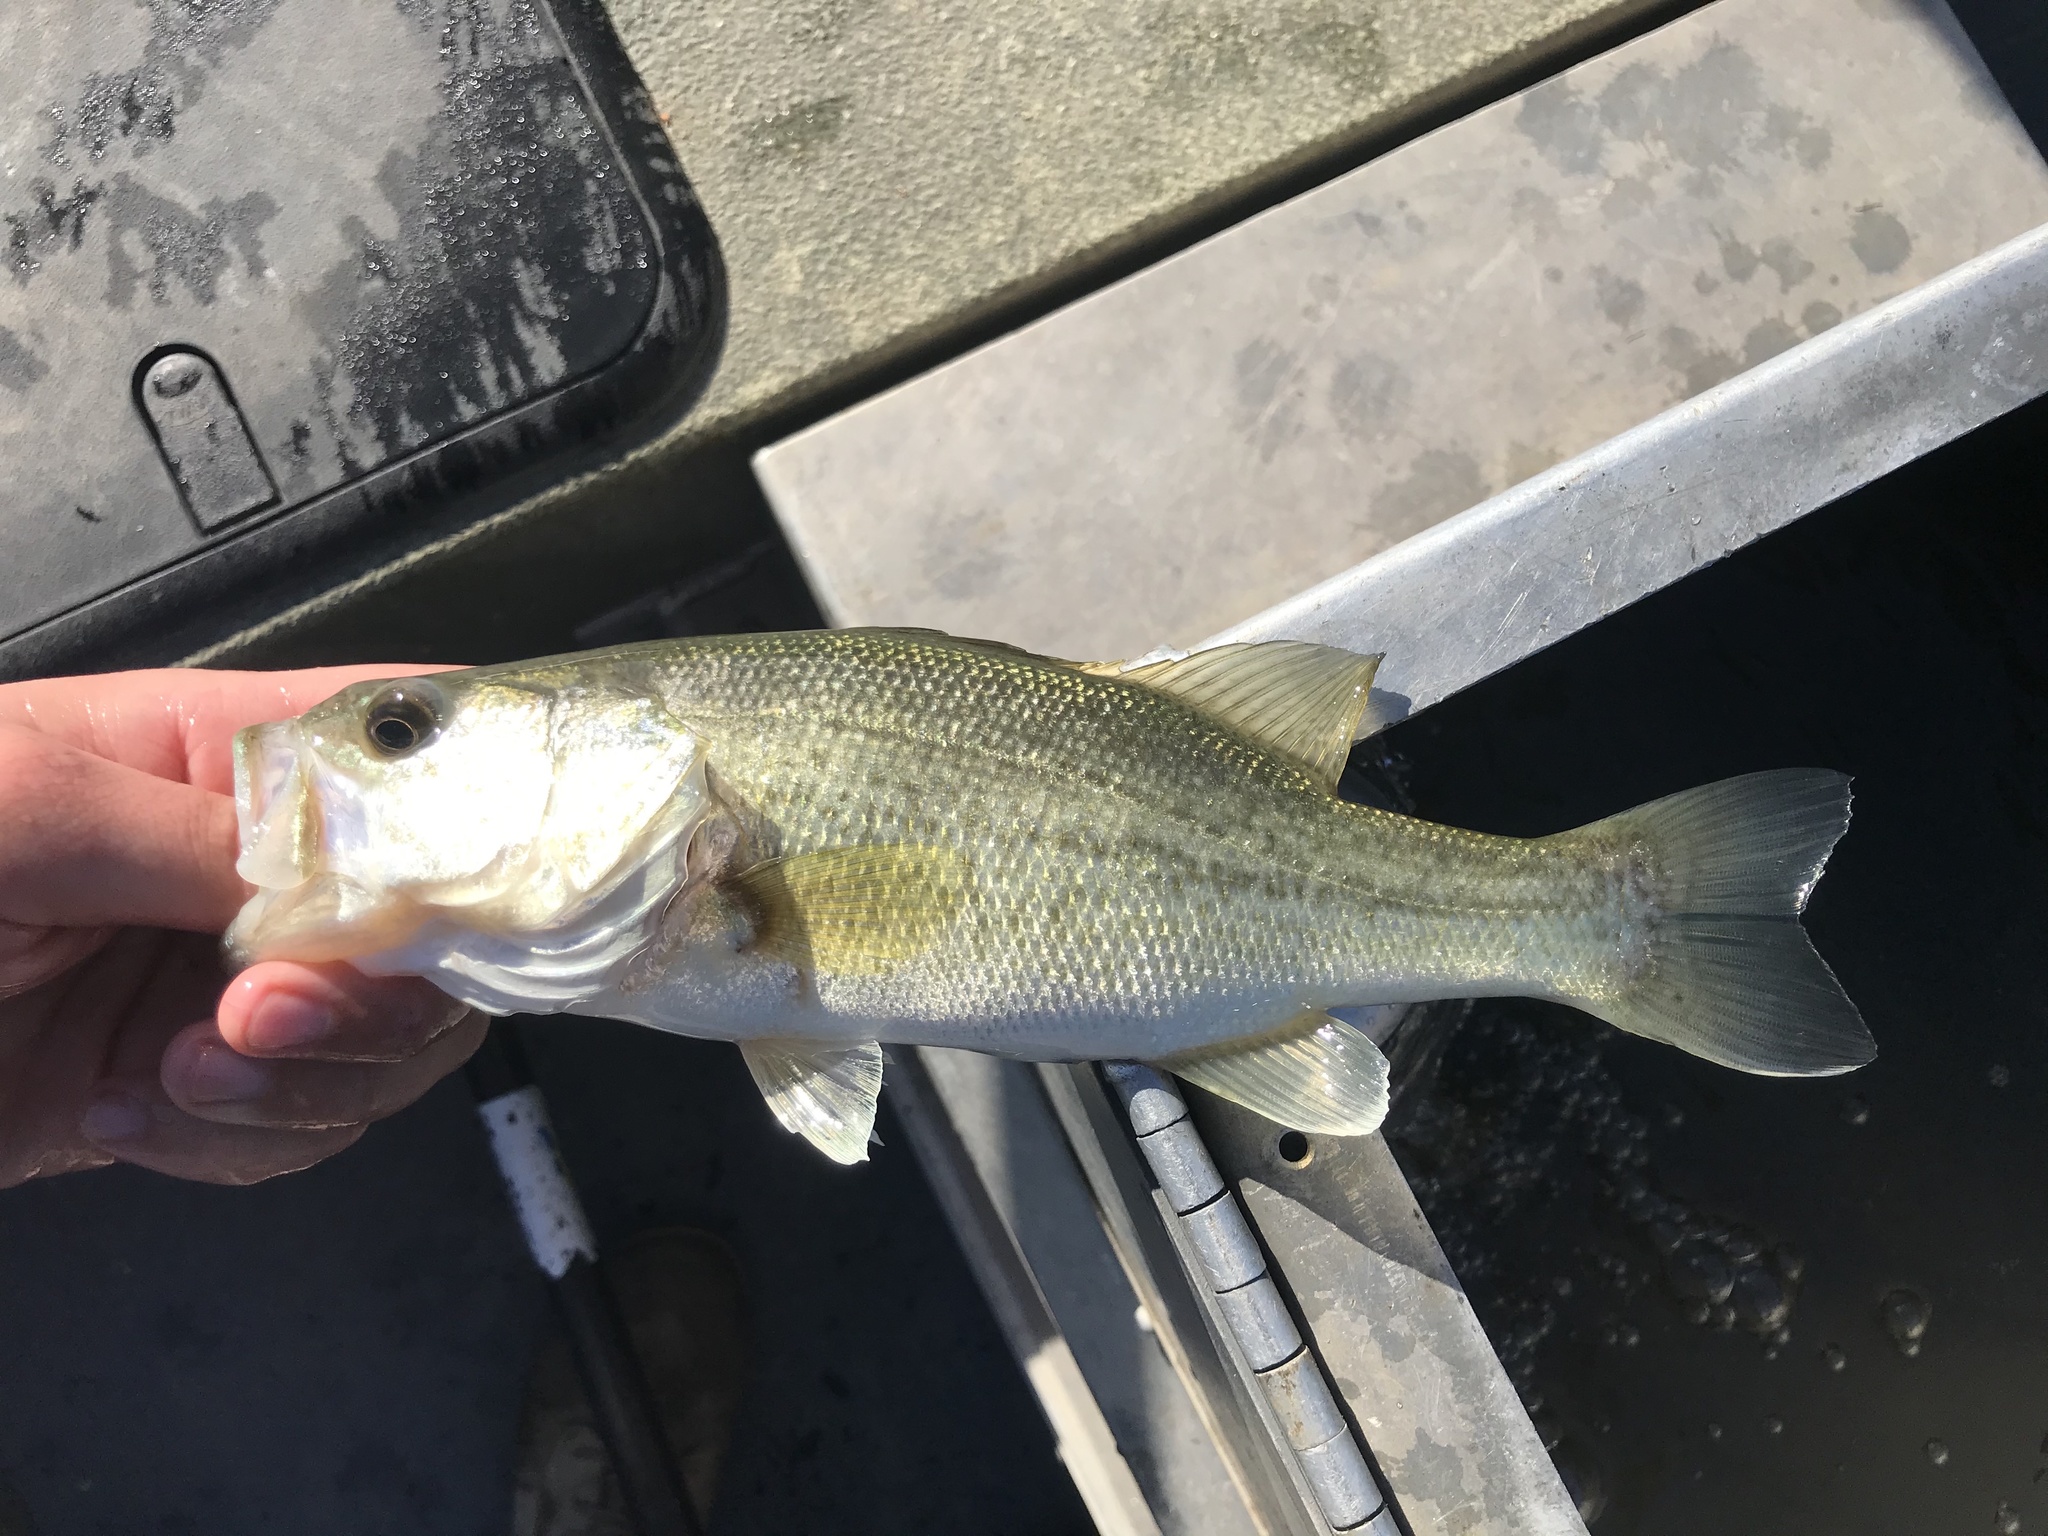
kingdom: Animalia
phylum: Chordata
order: Perciformes
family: Centrarchidae
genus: Micropterus
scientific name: Micropterus
